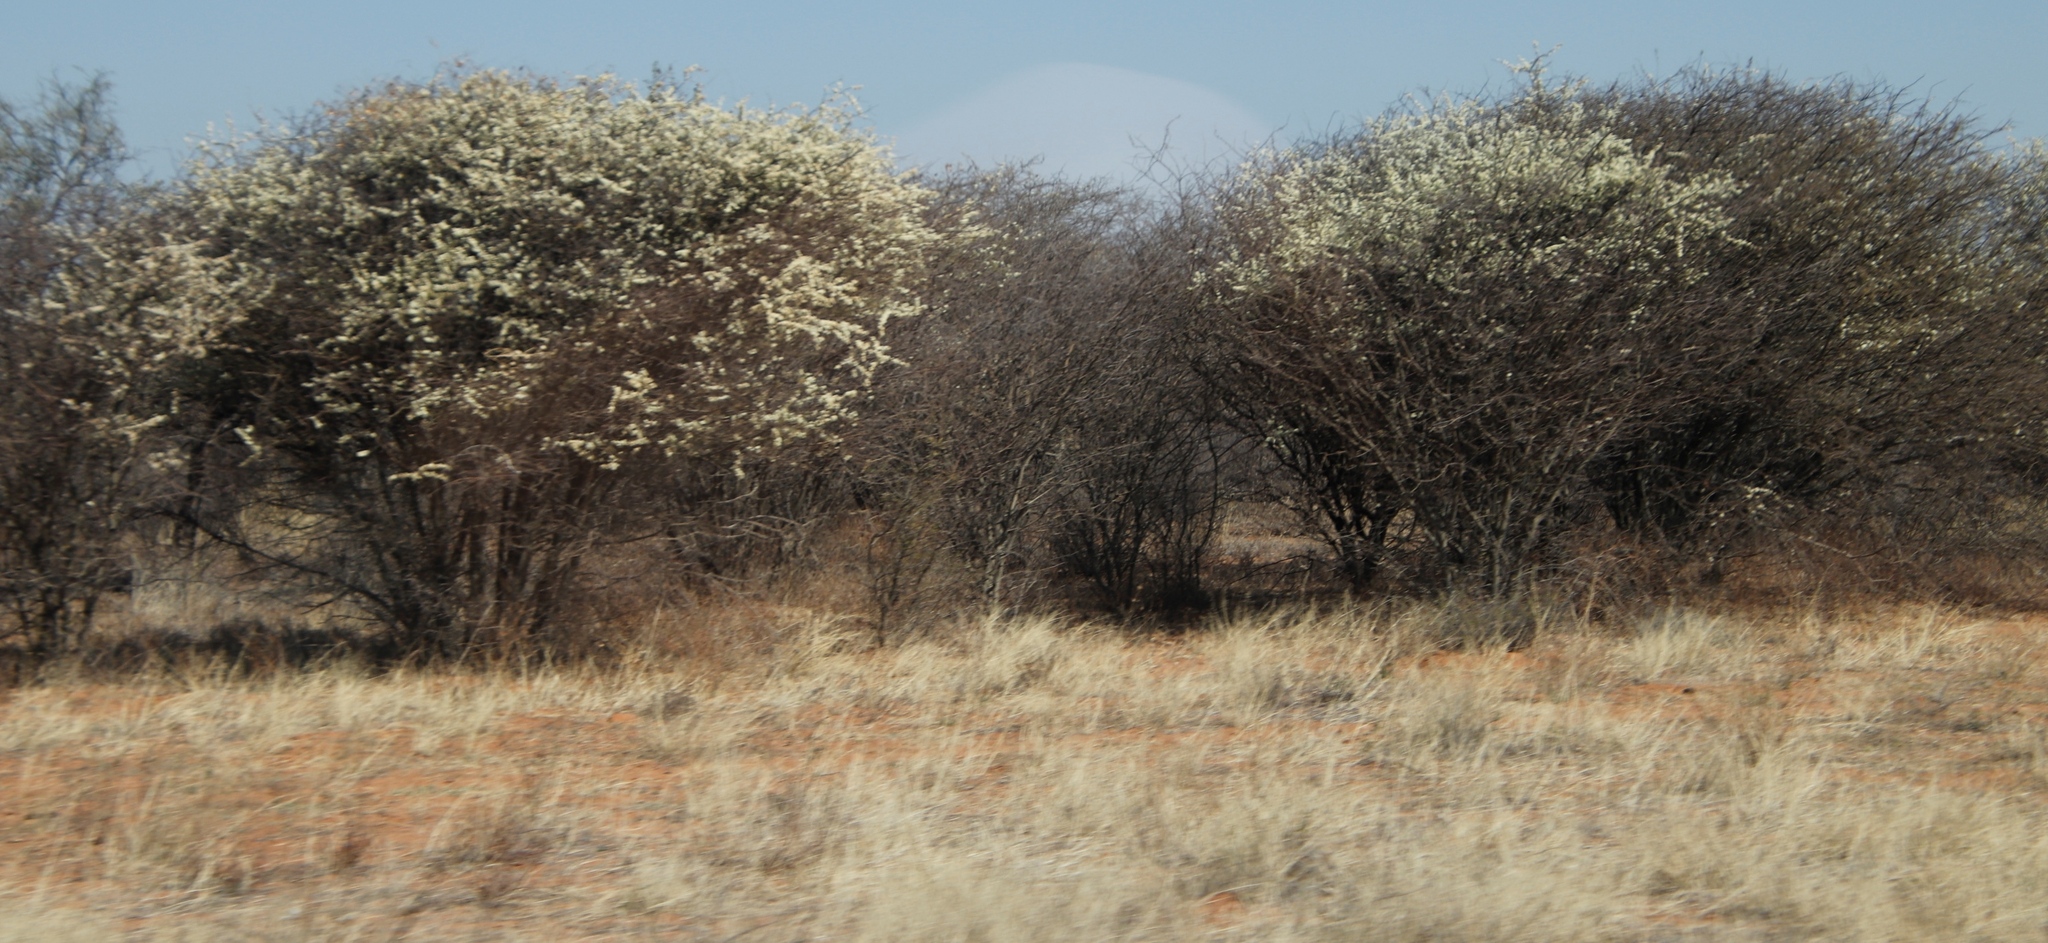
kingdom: Plantae
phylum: Tracheophyta
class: Magnoliopsida
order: Fabales
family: Fabaceae
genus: Senegalia
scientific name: Senegalia mellifera
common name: Hookthorn
